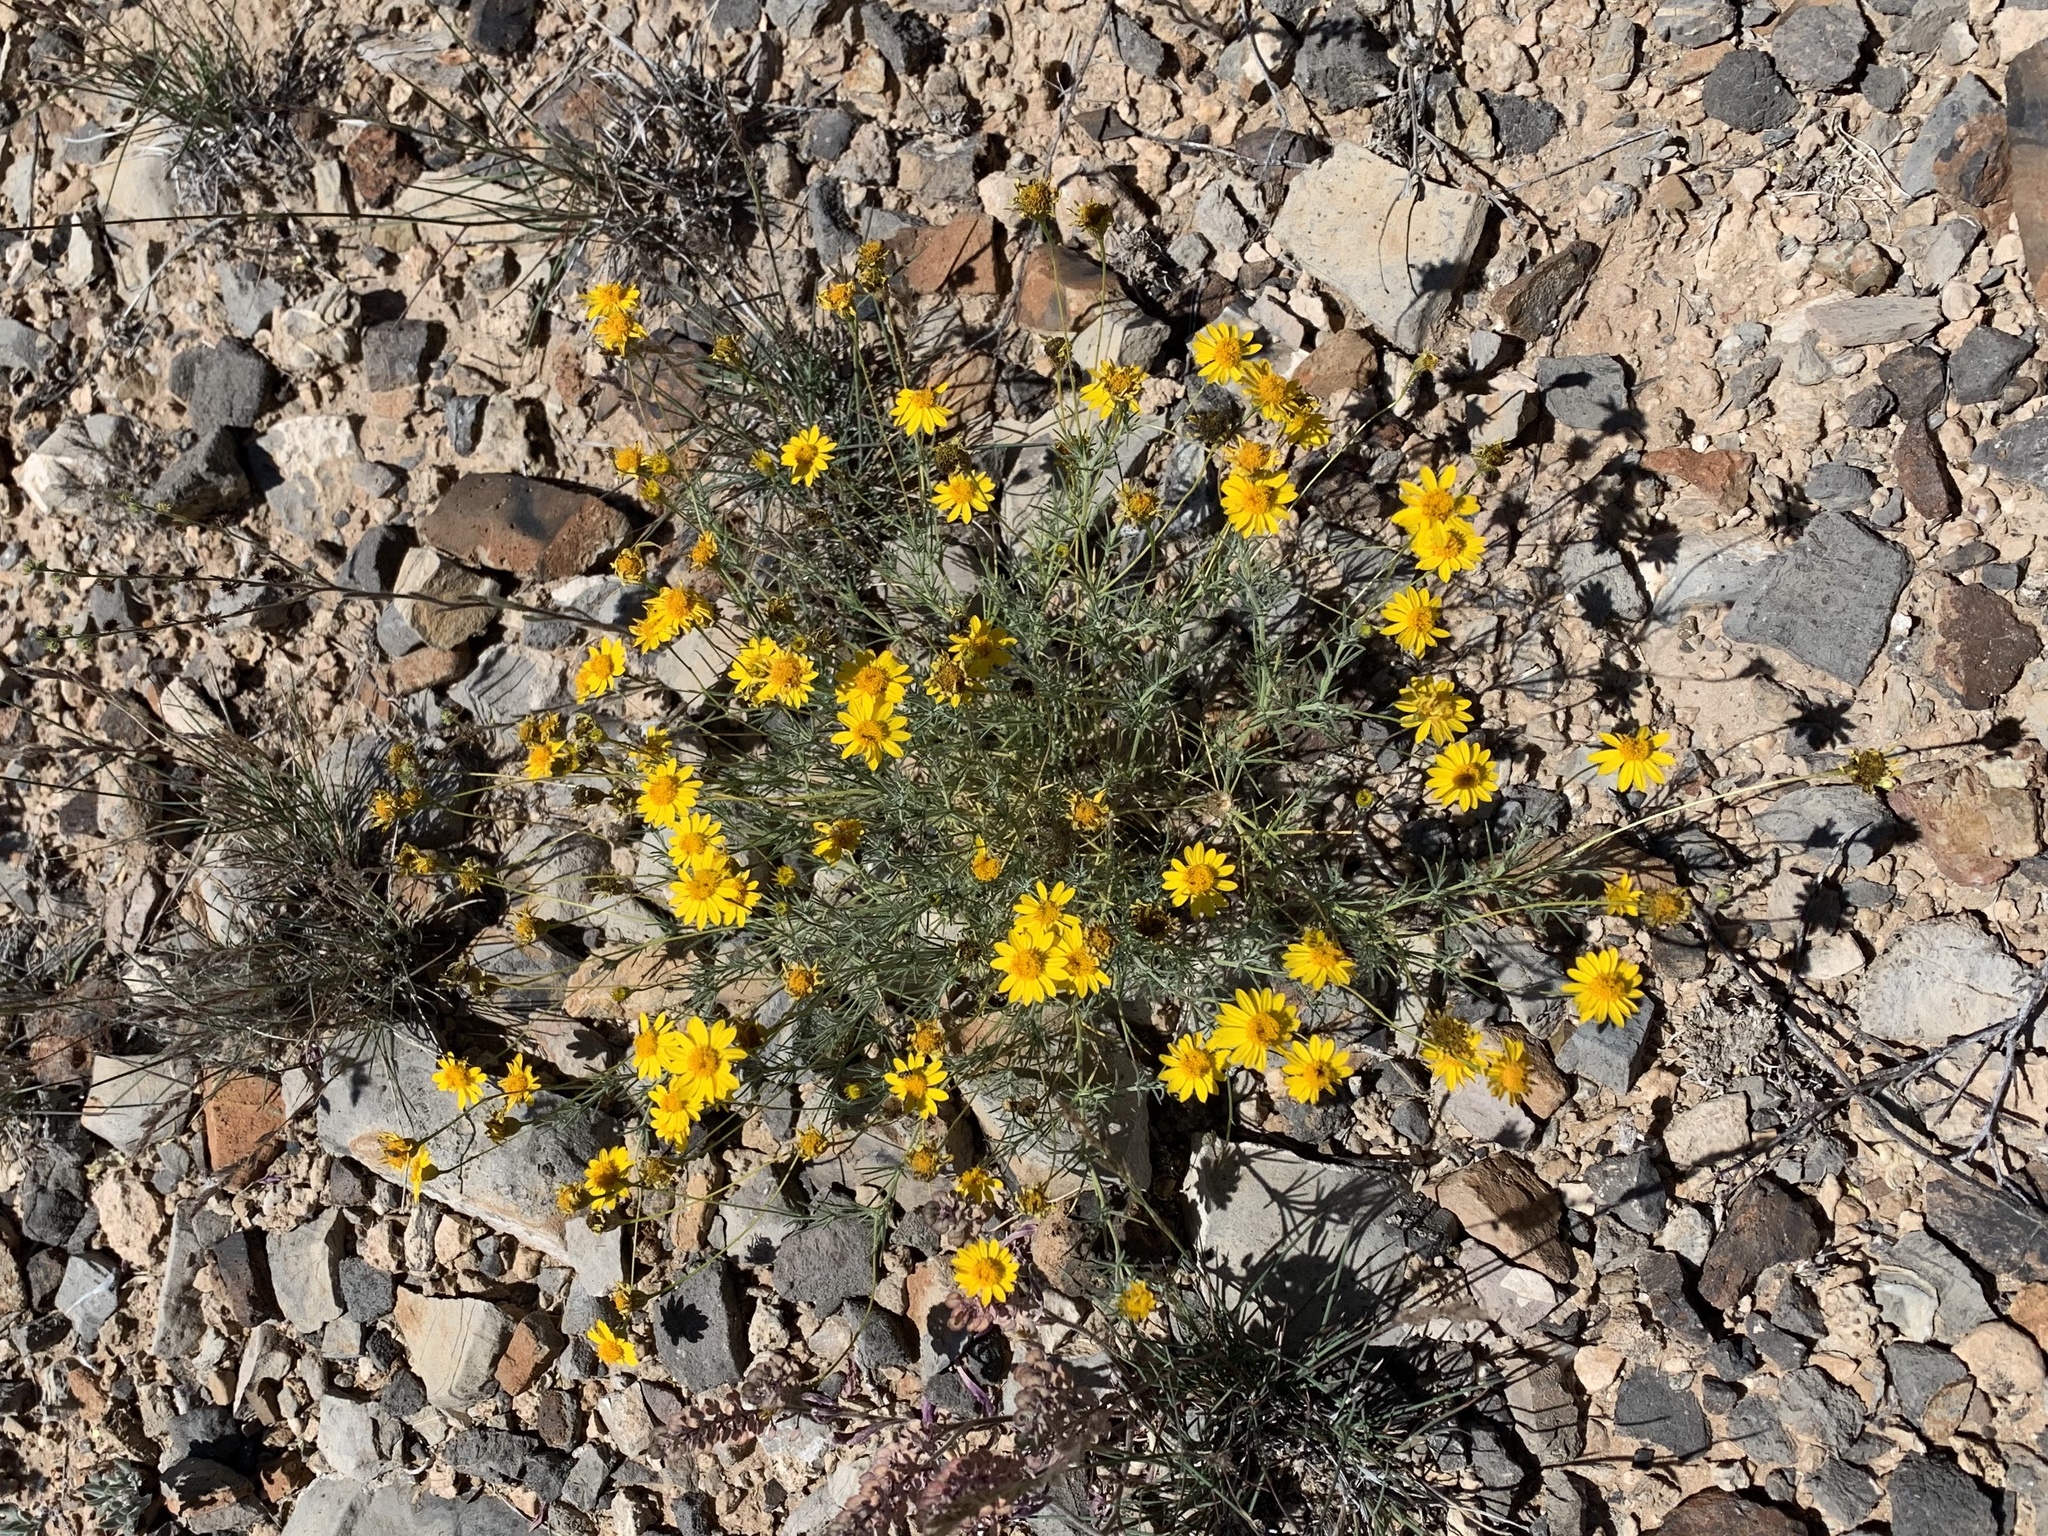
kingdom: Plantae
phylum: Tracheophyta
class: Magnoliopsida
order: Asterales
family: Asteraceae
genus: Thymophylla
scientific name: Thymophylla pentachaeta
